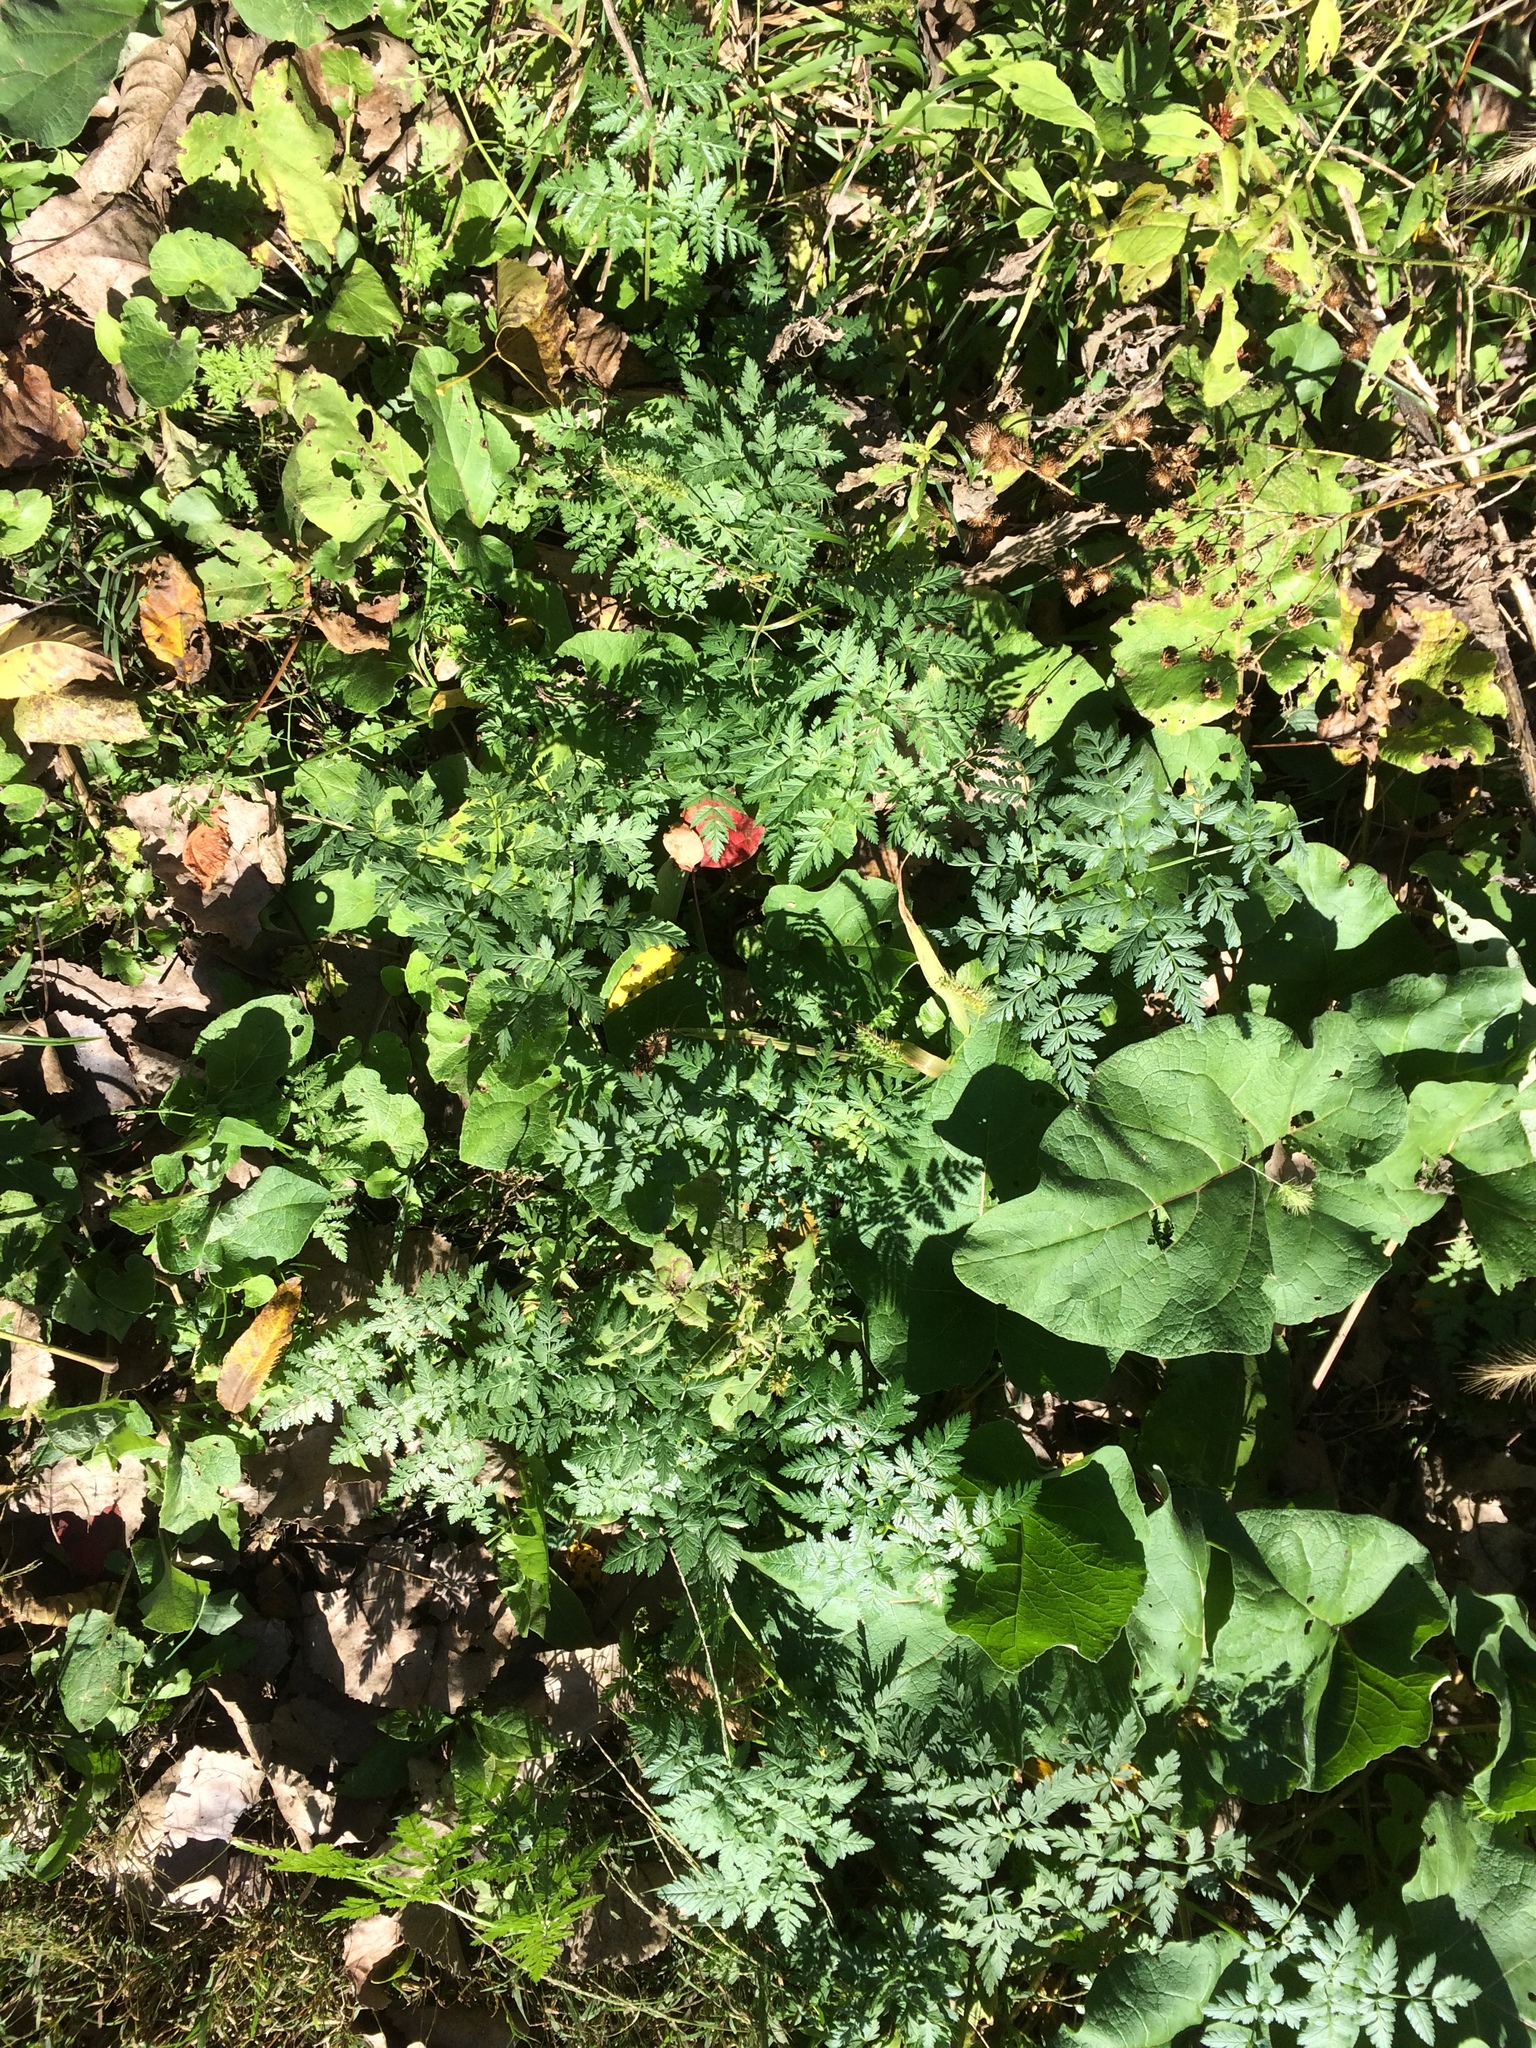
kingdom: Plantae
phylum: Tracheophyta
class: Magnoliopsida
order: Apiales
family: Apiaceae
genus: Conium
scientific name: Conium maculatum
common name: Hemlock
